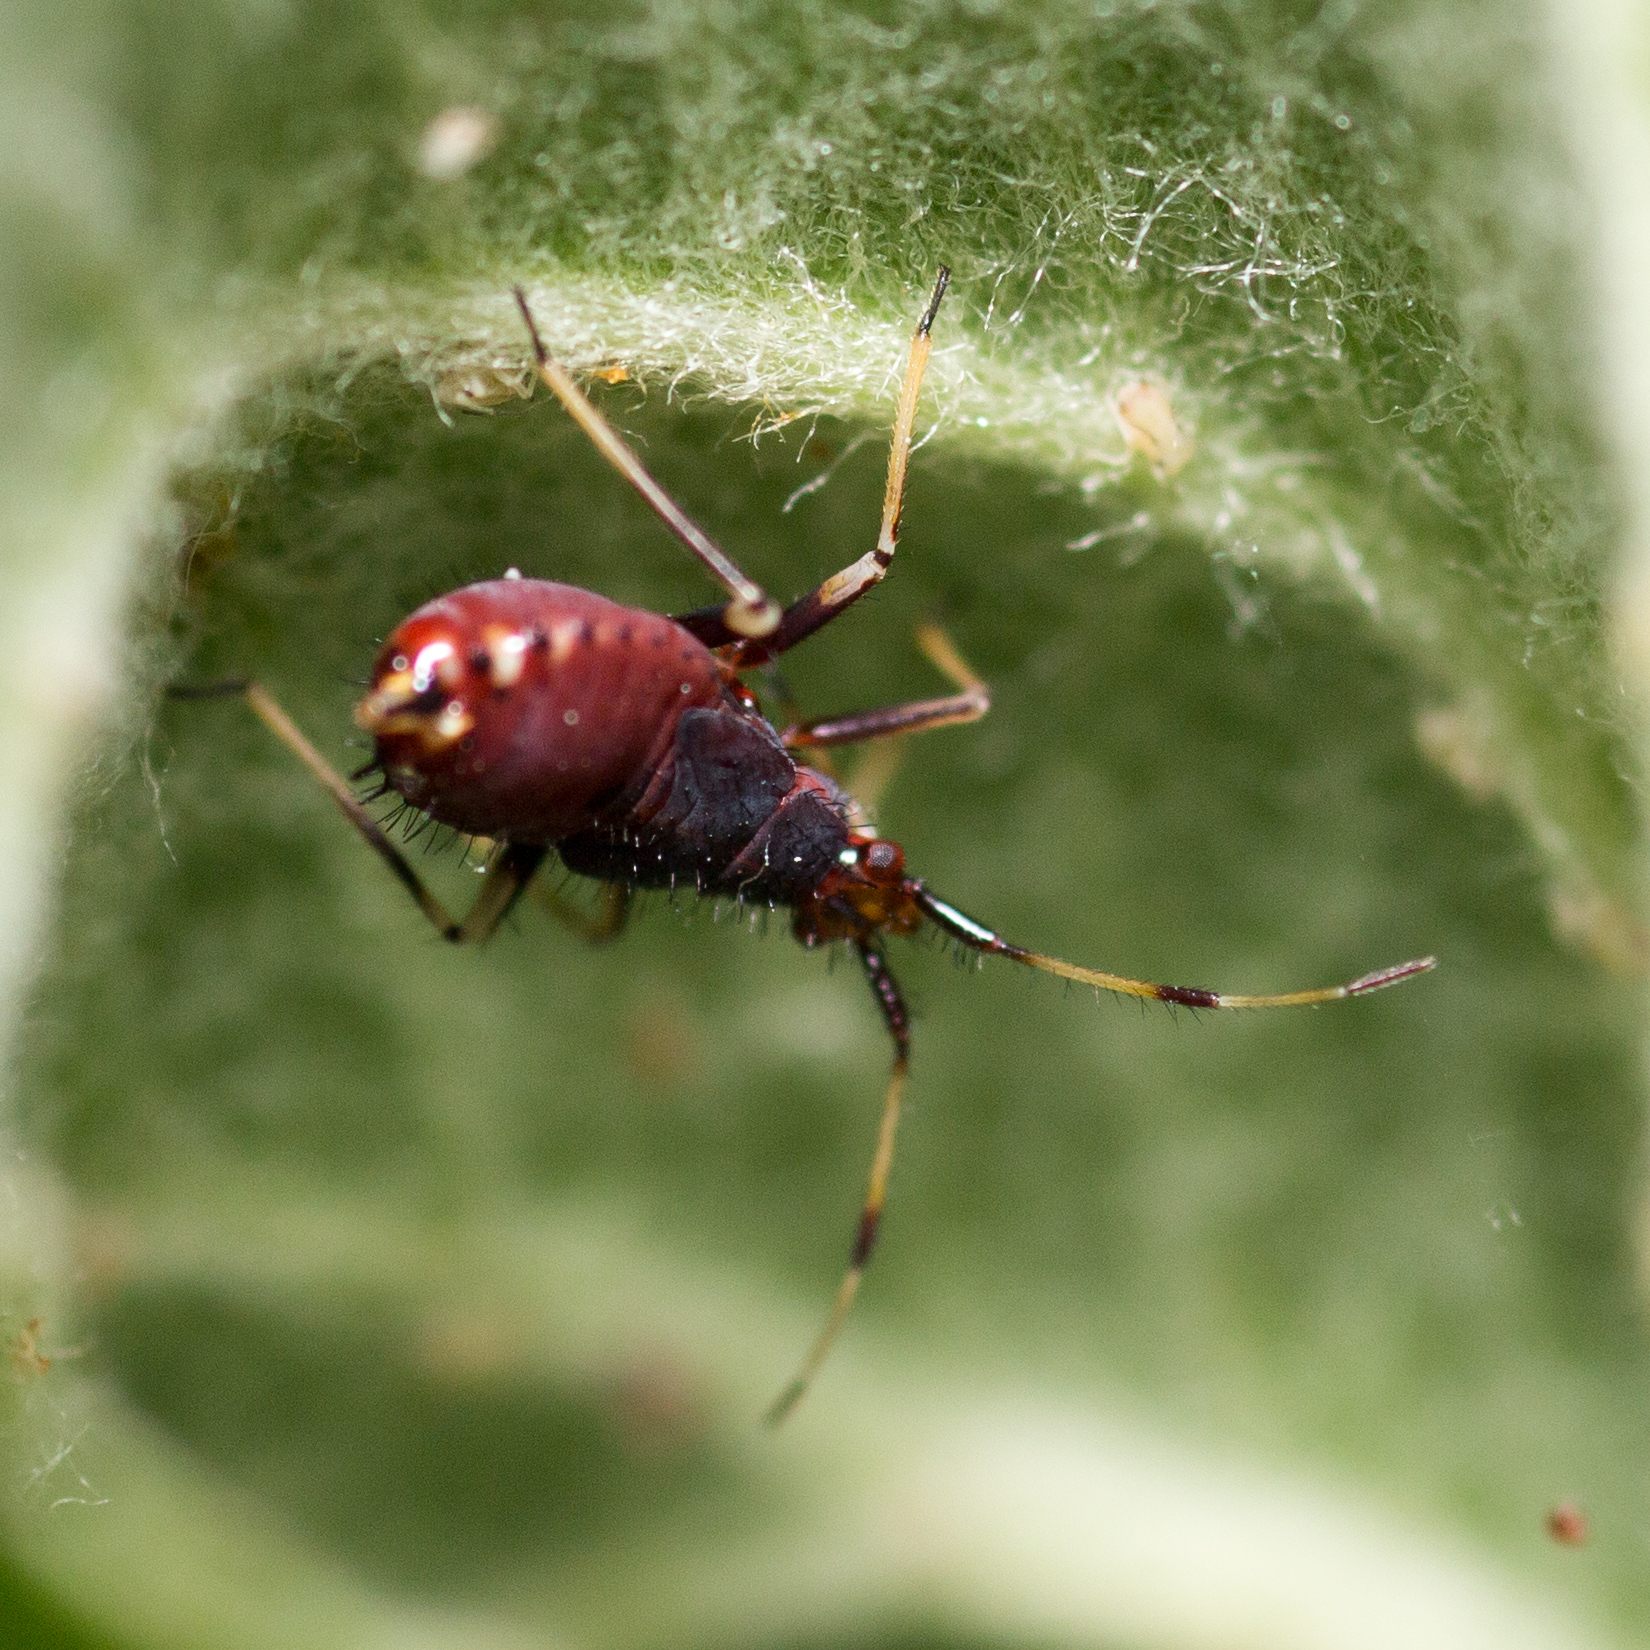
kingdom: Animalia
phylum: Arthropoda
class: Insecta
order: Hemiptera
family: Miridae
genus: Deraeocoris
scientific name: Deraeocoris ruber
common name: Plant bug
